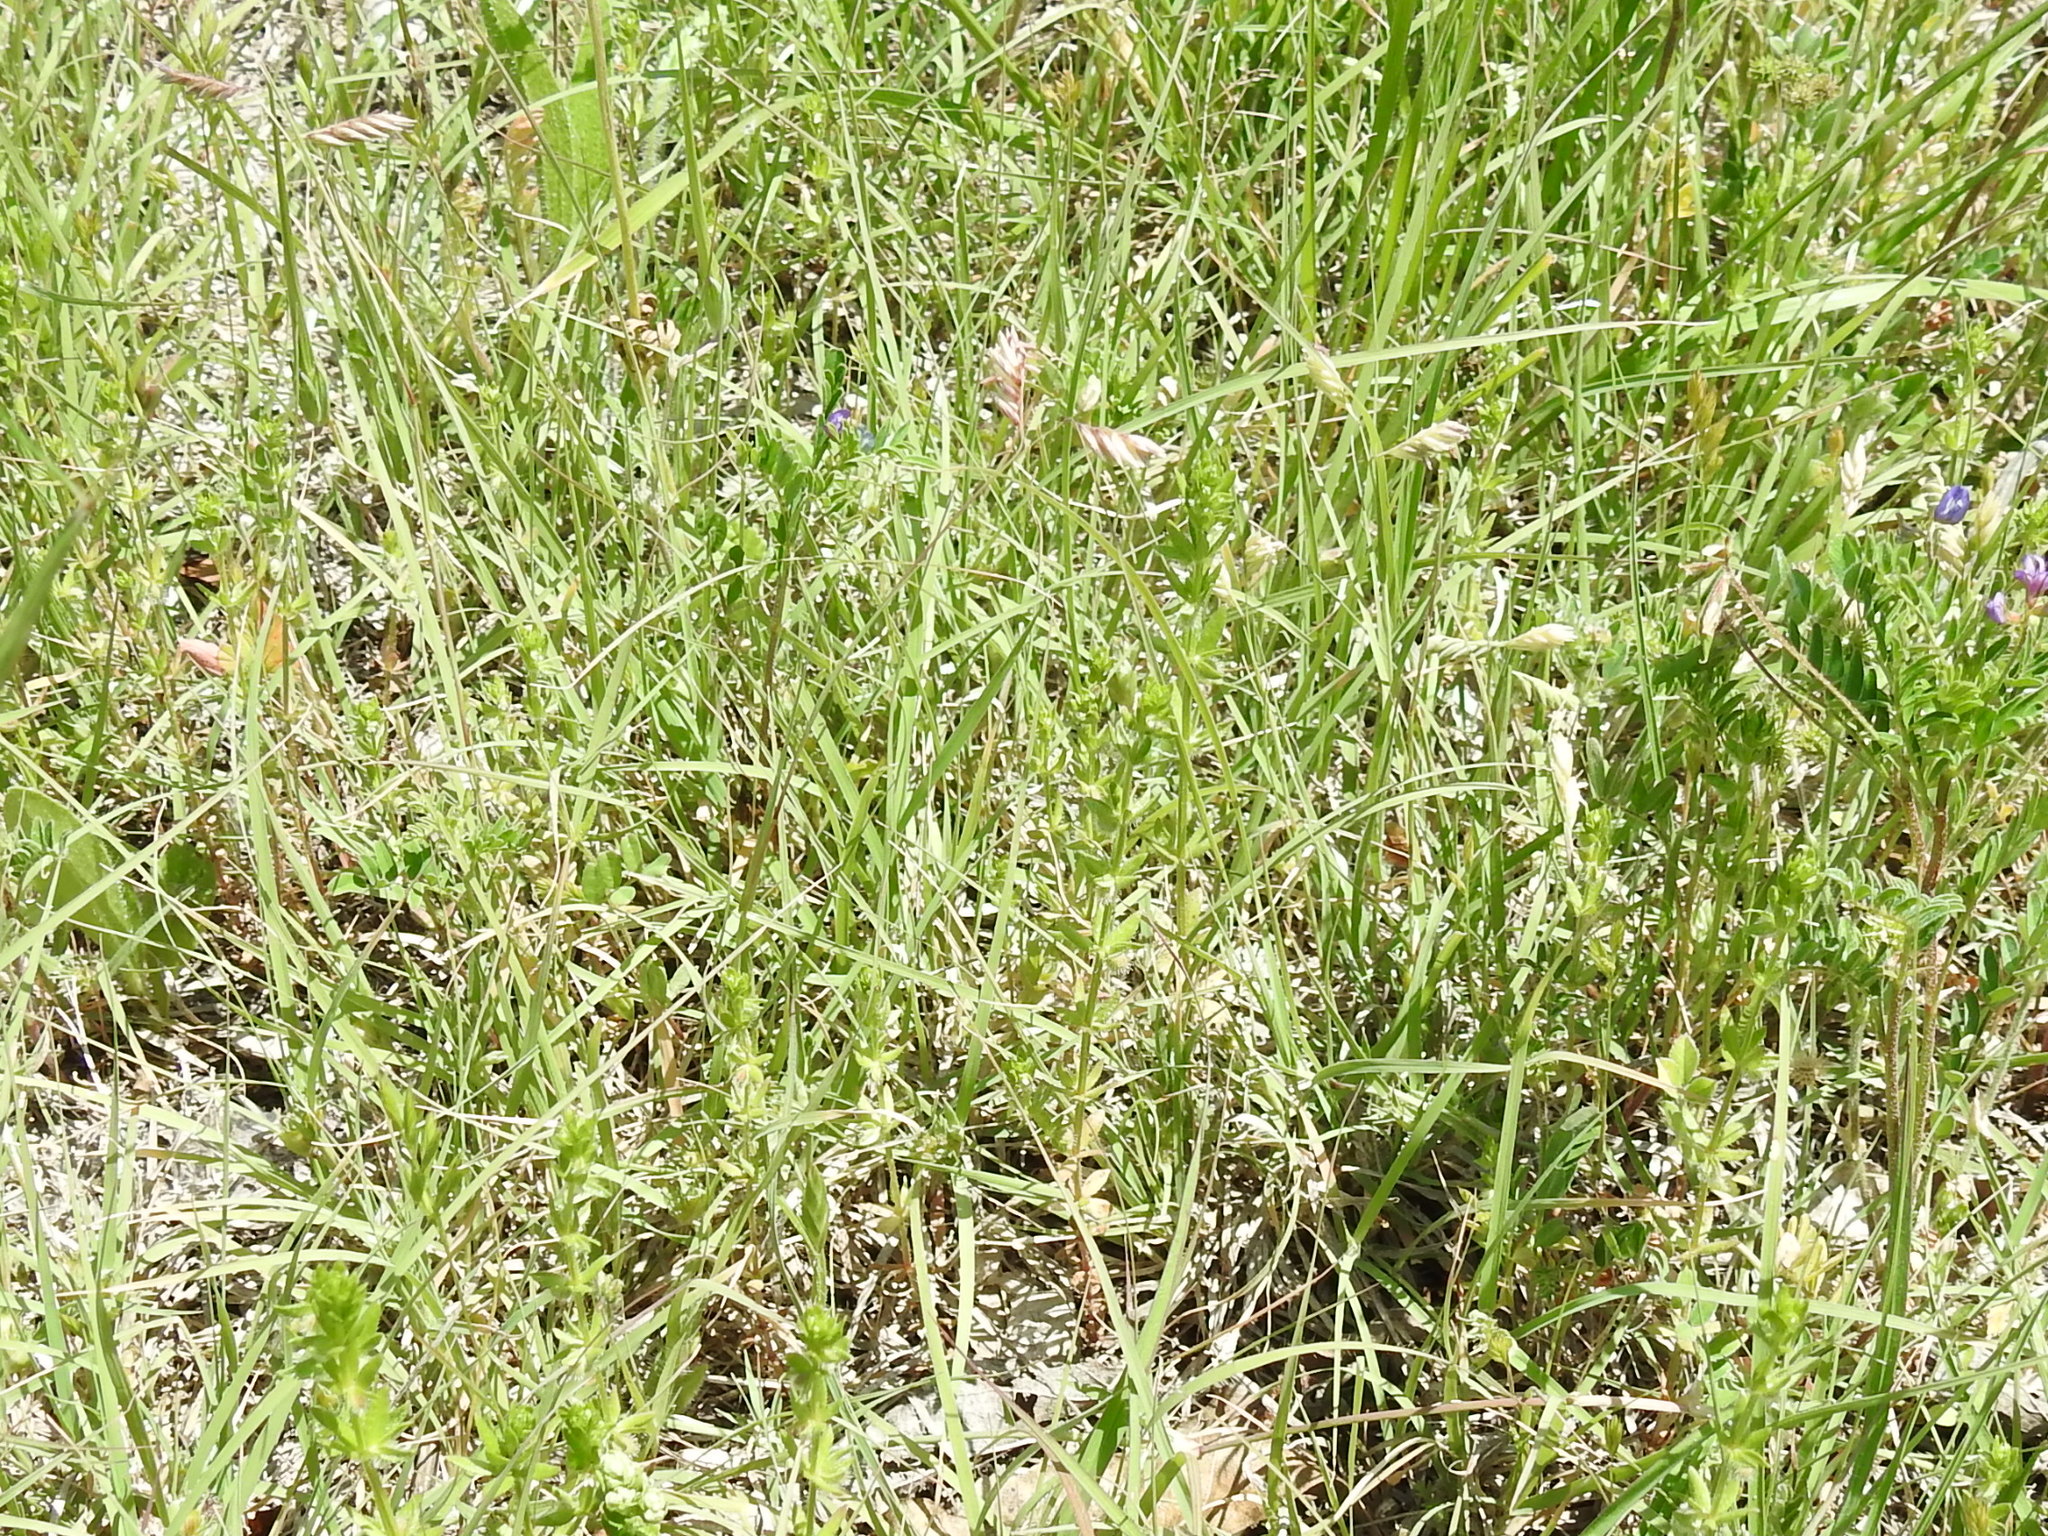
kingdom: Plantae
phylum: Tracheophyta
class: Magnoliopsida
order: Gentianales
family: Rubiaceae
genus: Galium
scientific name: Galium virgatum
